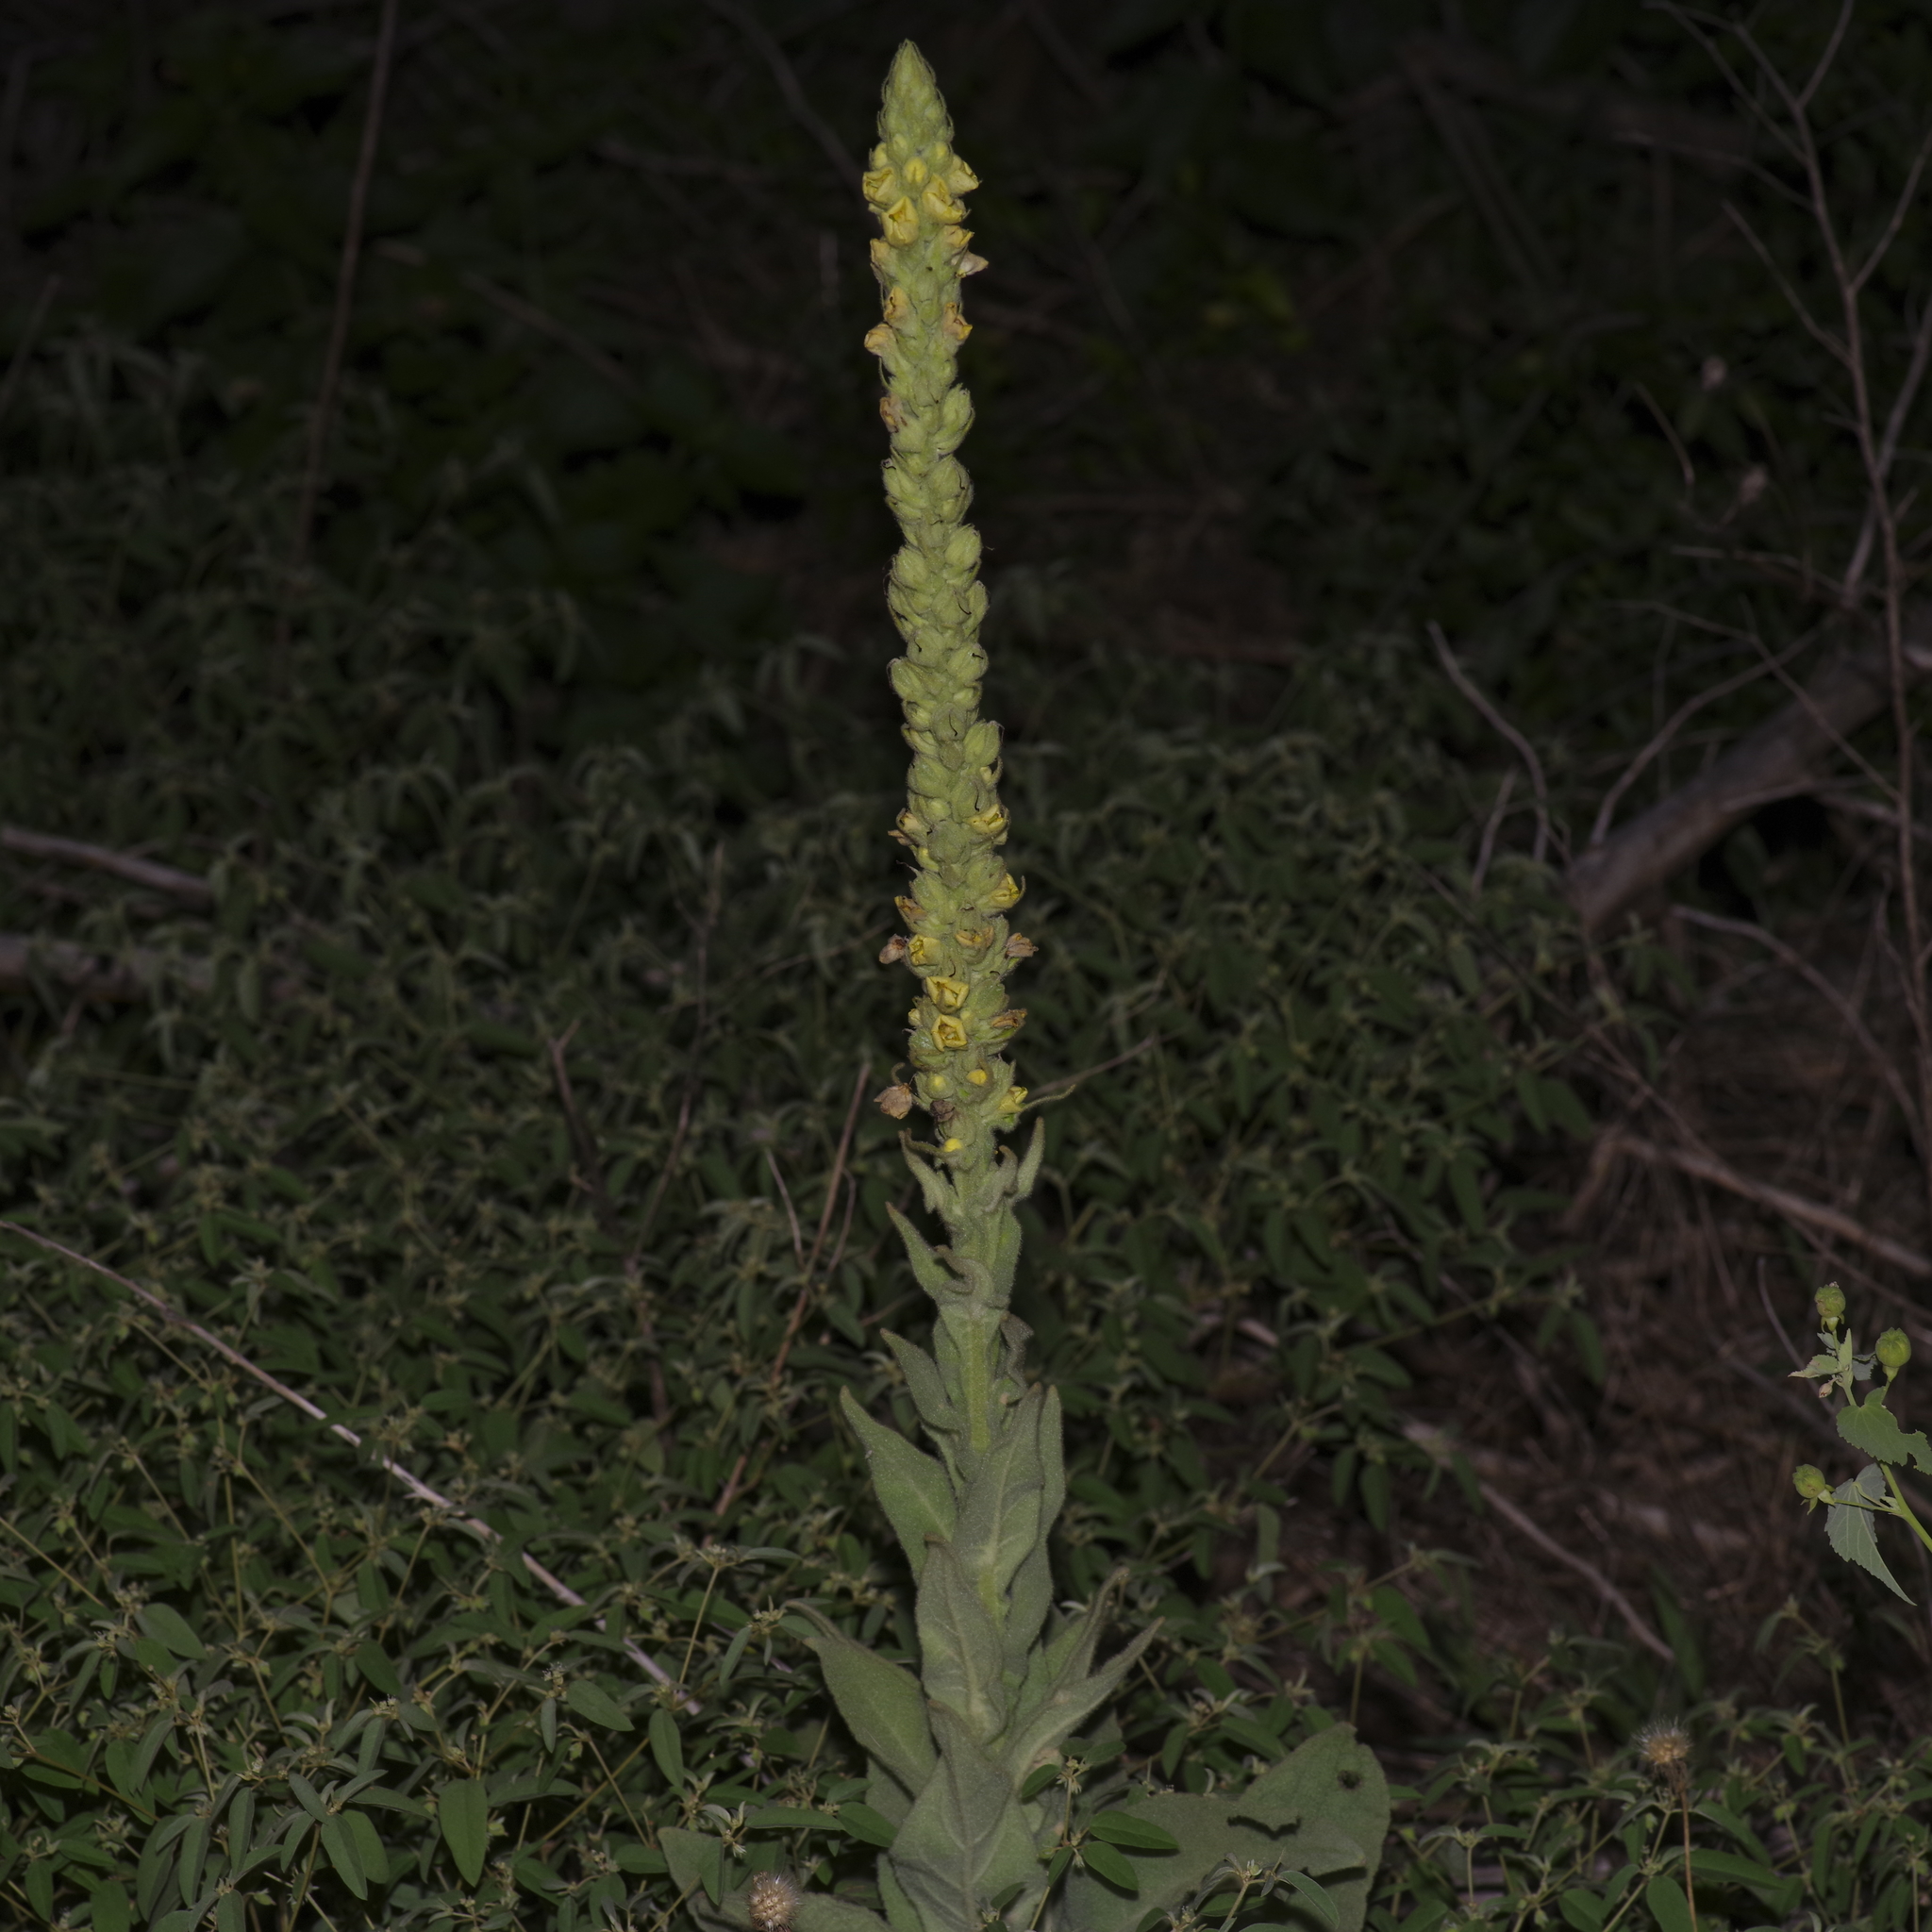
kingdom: Plantae
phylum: Tracheophyta
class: Magnoliopsida
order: Lamiales
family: Scrophulariaceae
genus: Verbascum
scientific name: Verbascum thapsus
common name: Common mullein
